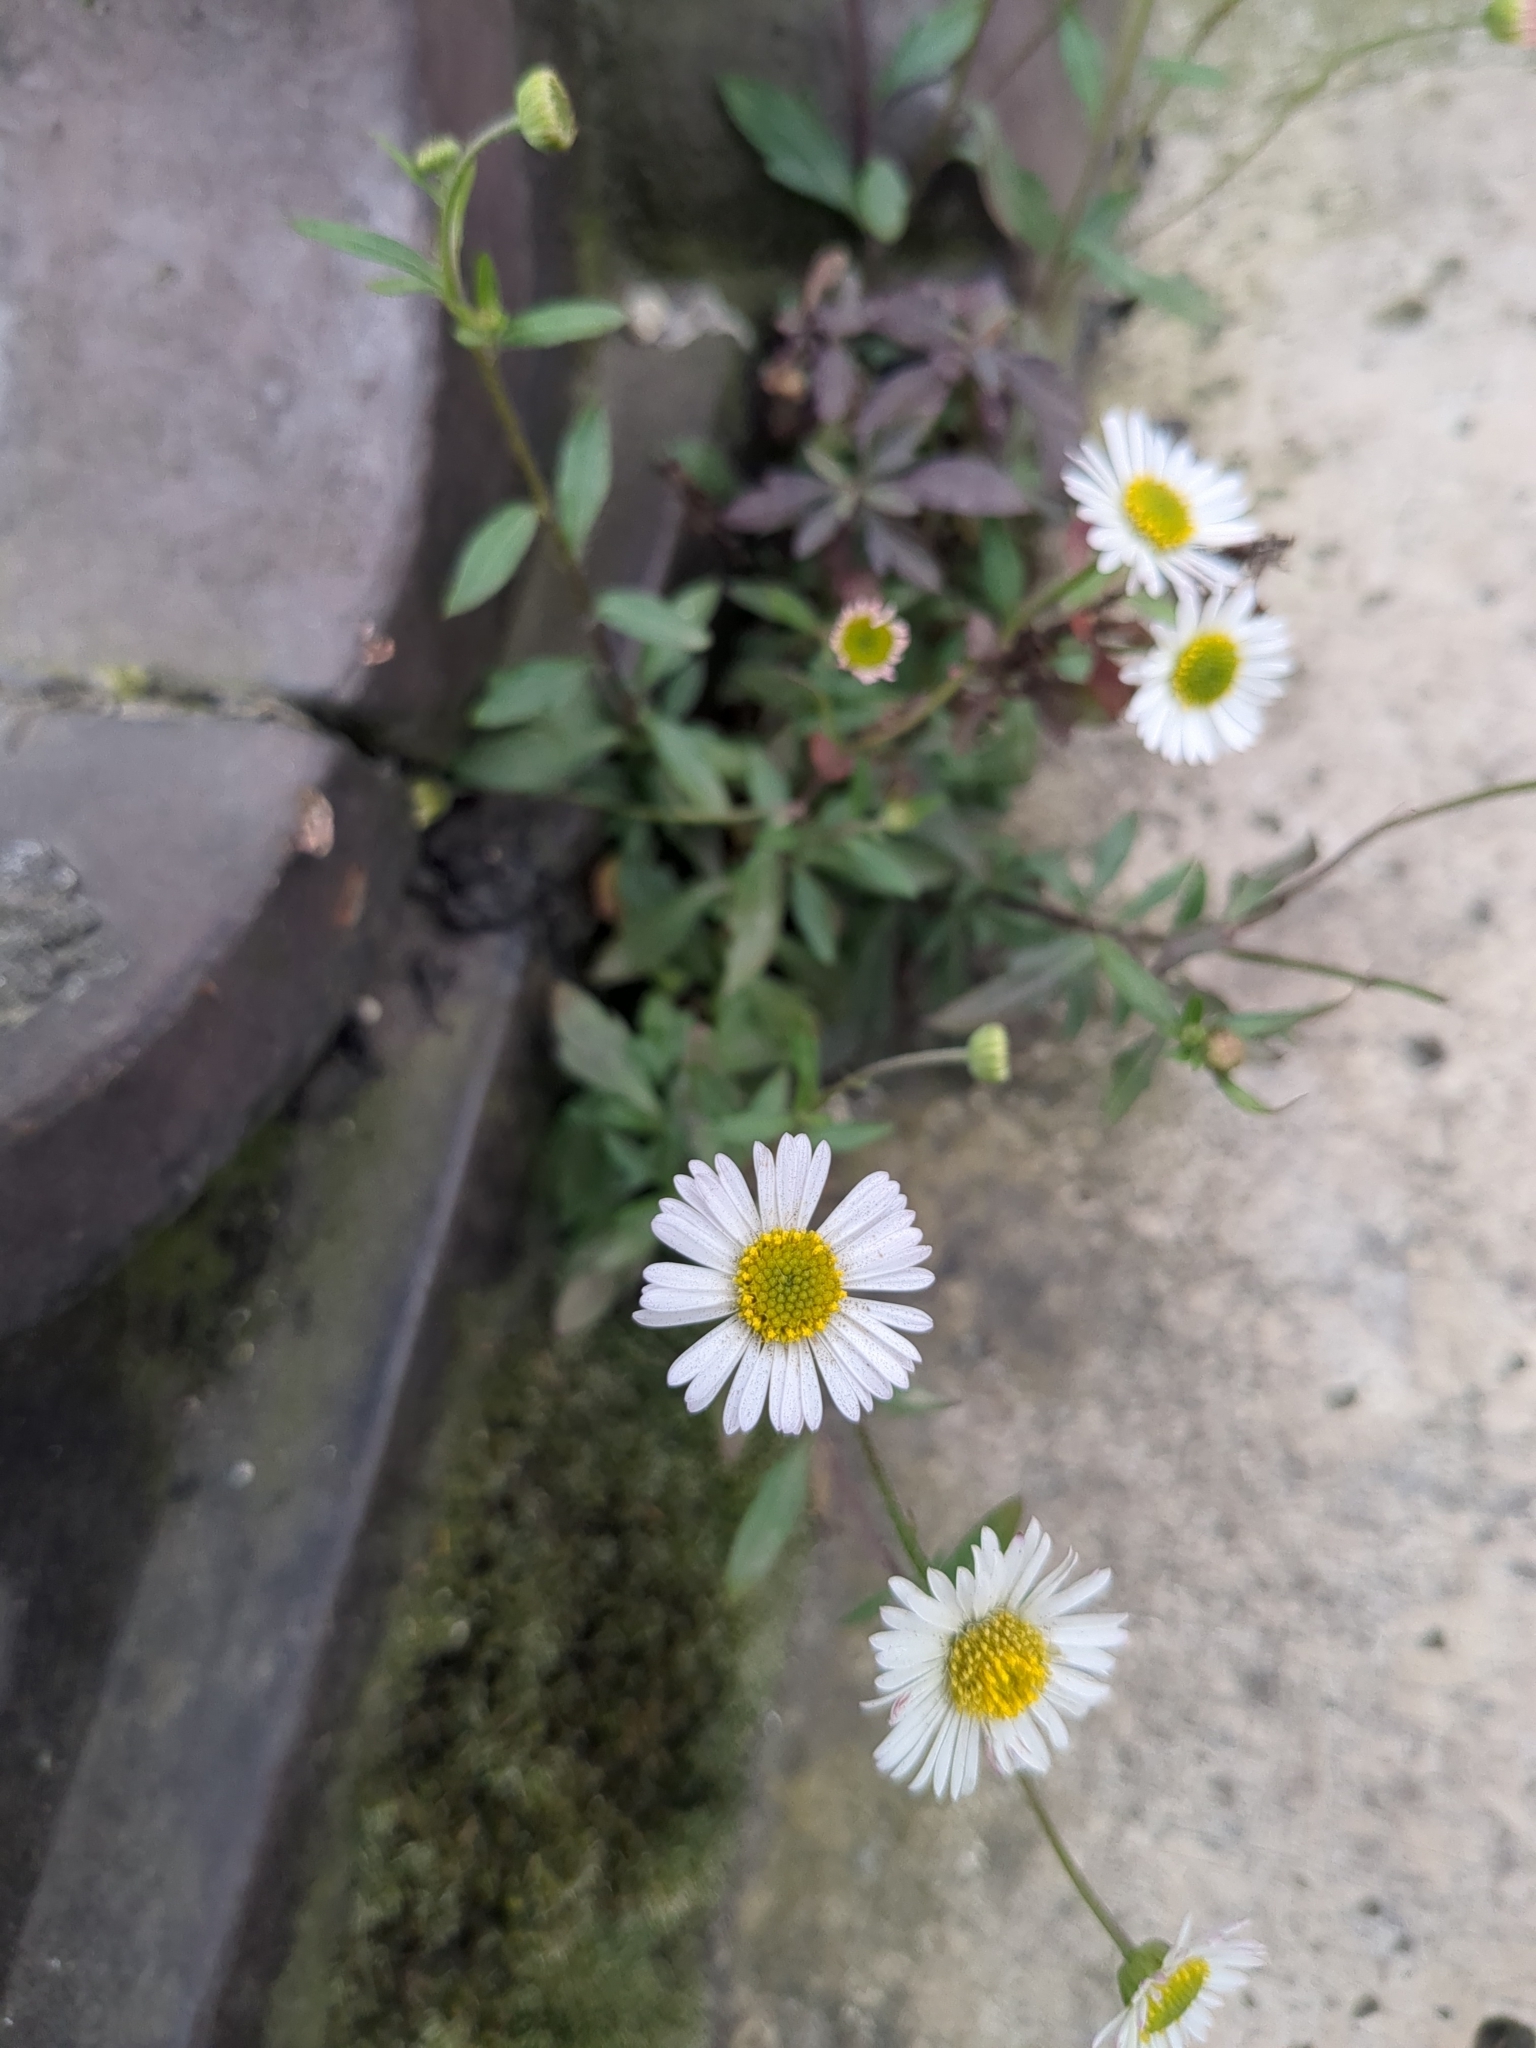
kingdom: Plantae
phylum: Tracheophyta
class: Magnoliopsida
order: Asterales
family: Asteraceae
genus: Erigeron
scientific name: Erigeron karvinskianus
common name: Mexican fleabane
